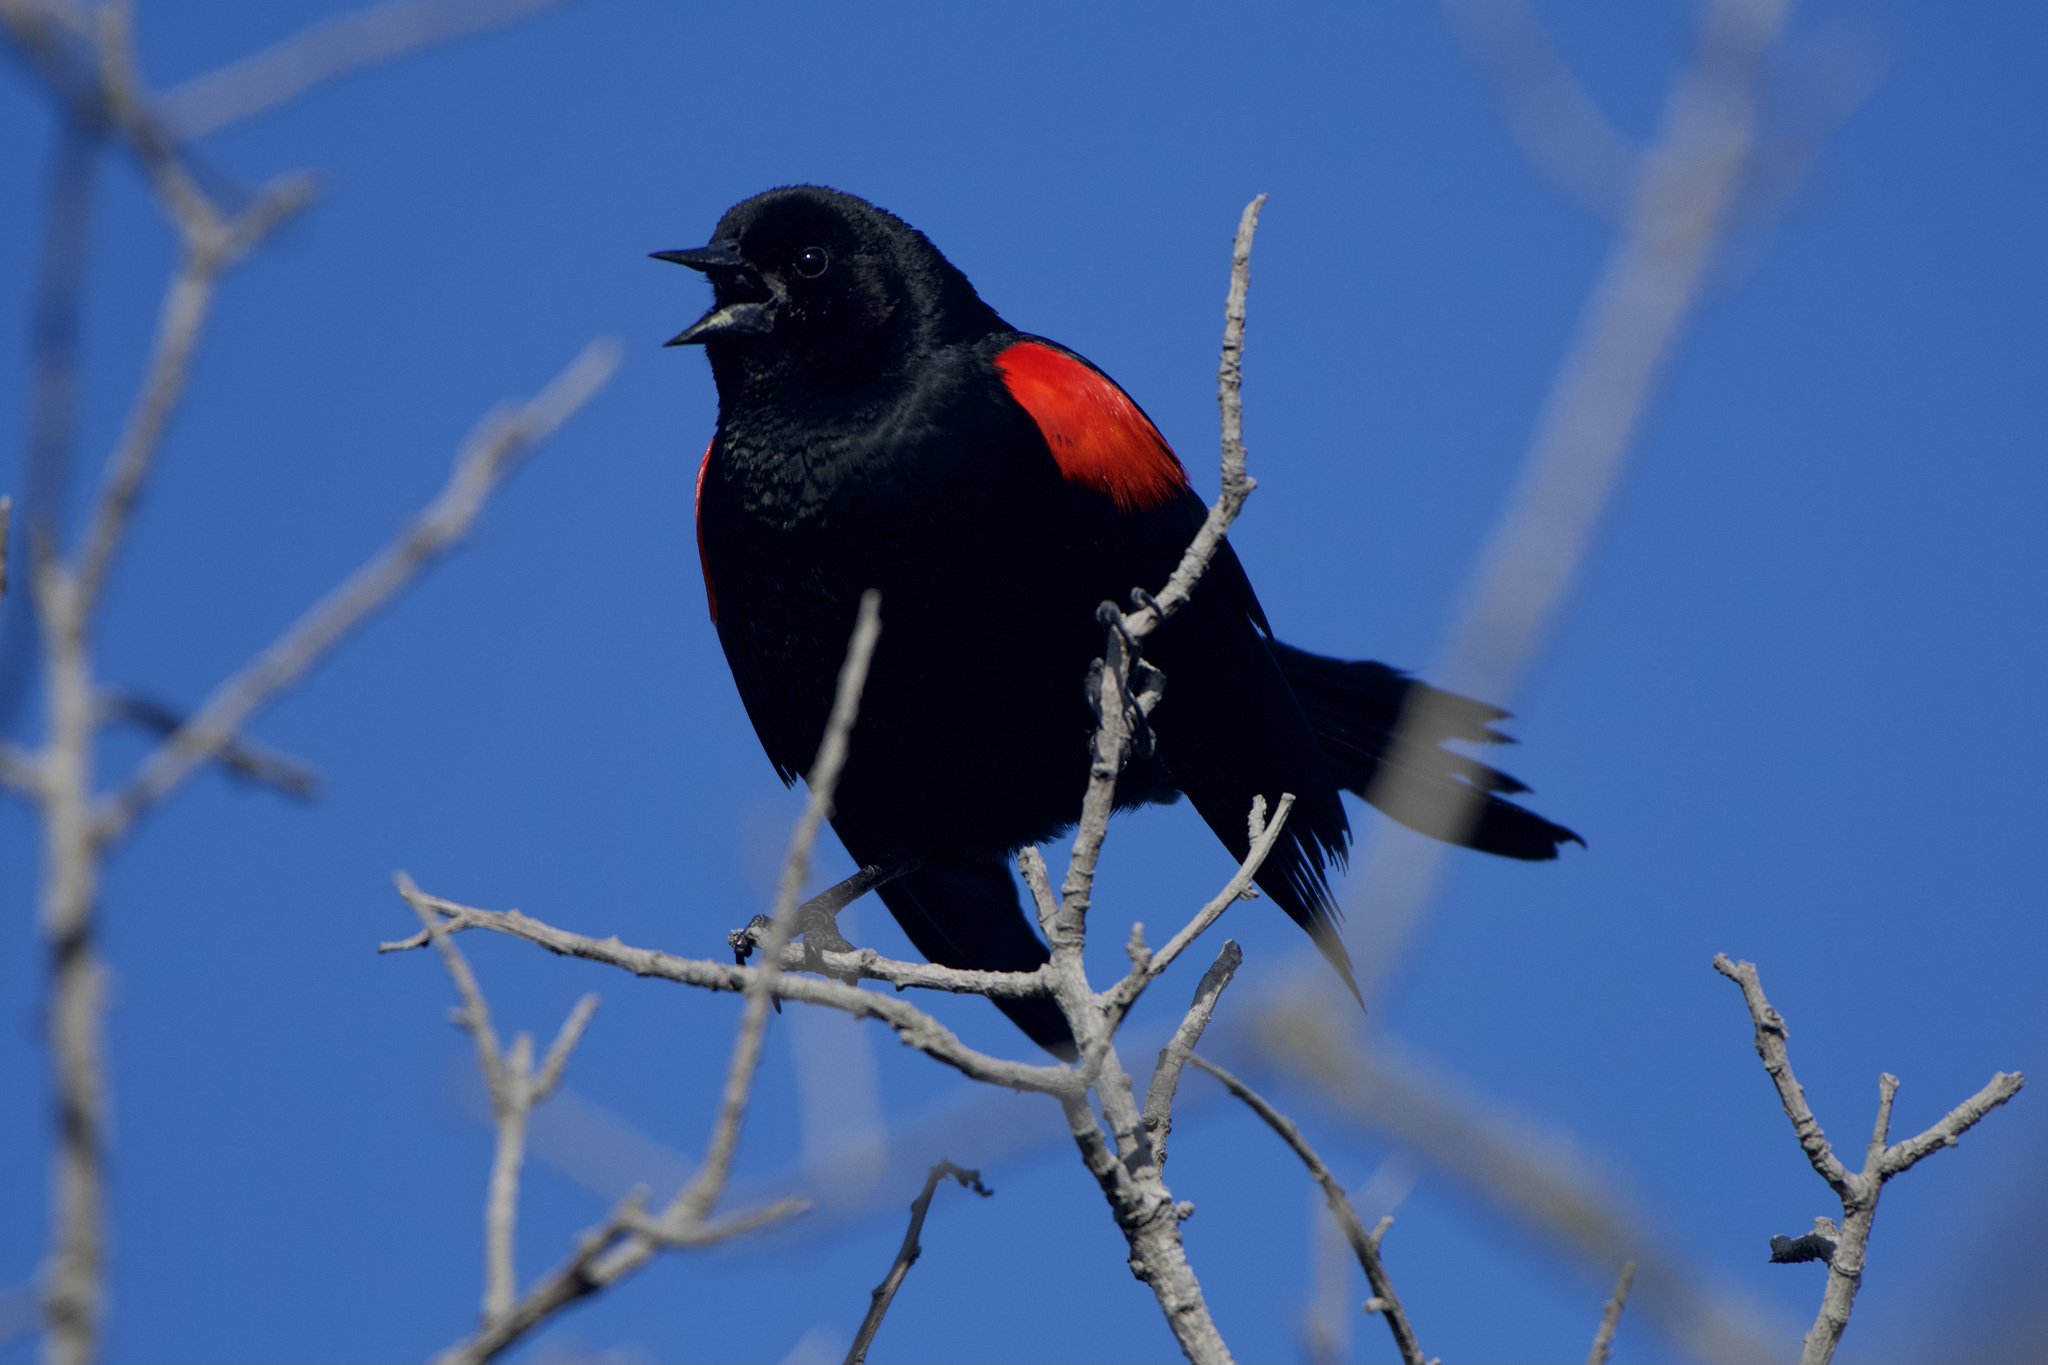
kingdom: Animalia
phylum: Chordata
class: Aves
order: Passeriformes
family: Icteridae
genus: Agelaius
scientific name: Agelaius phoeniceus
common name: Red-winged blackbird
